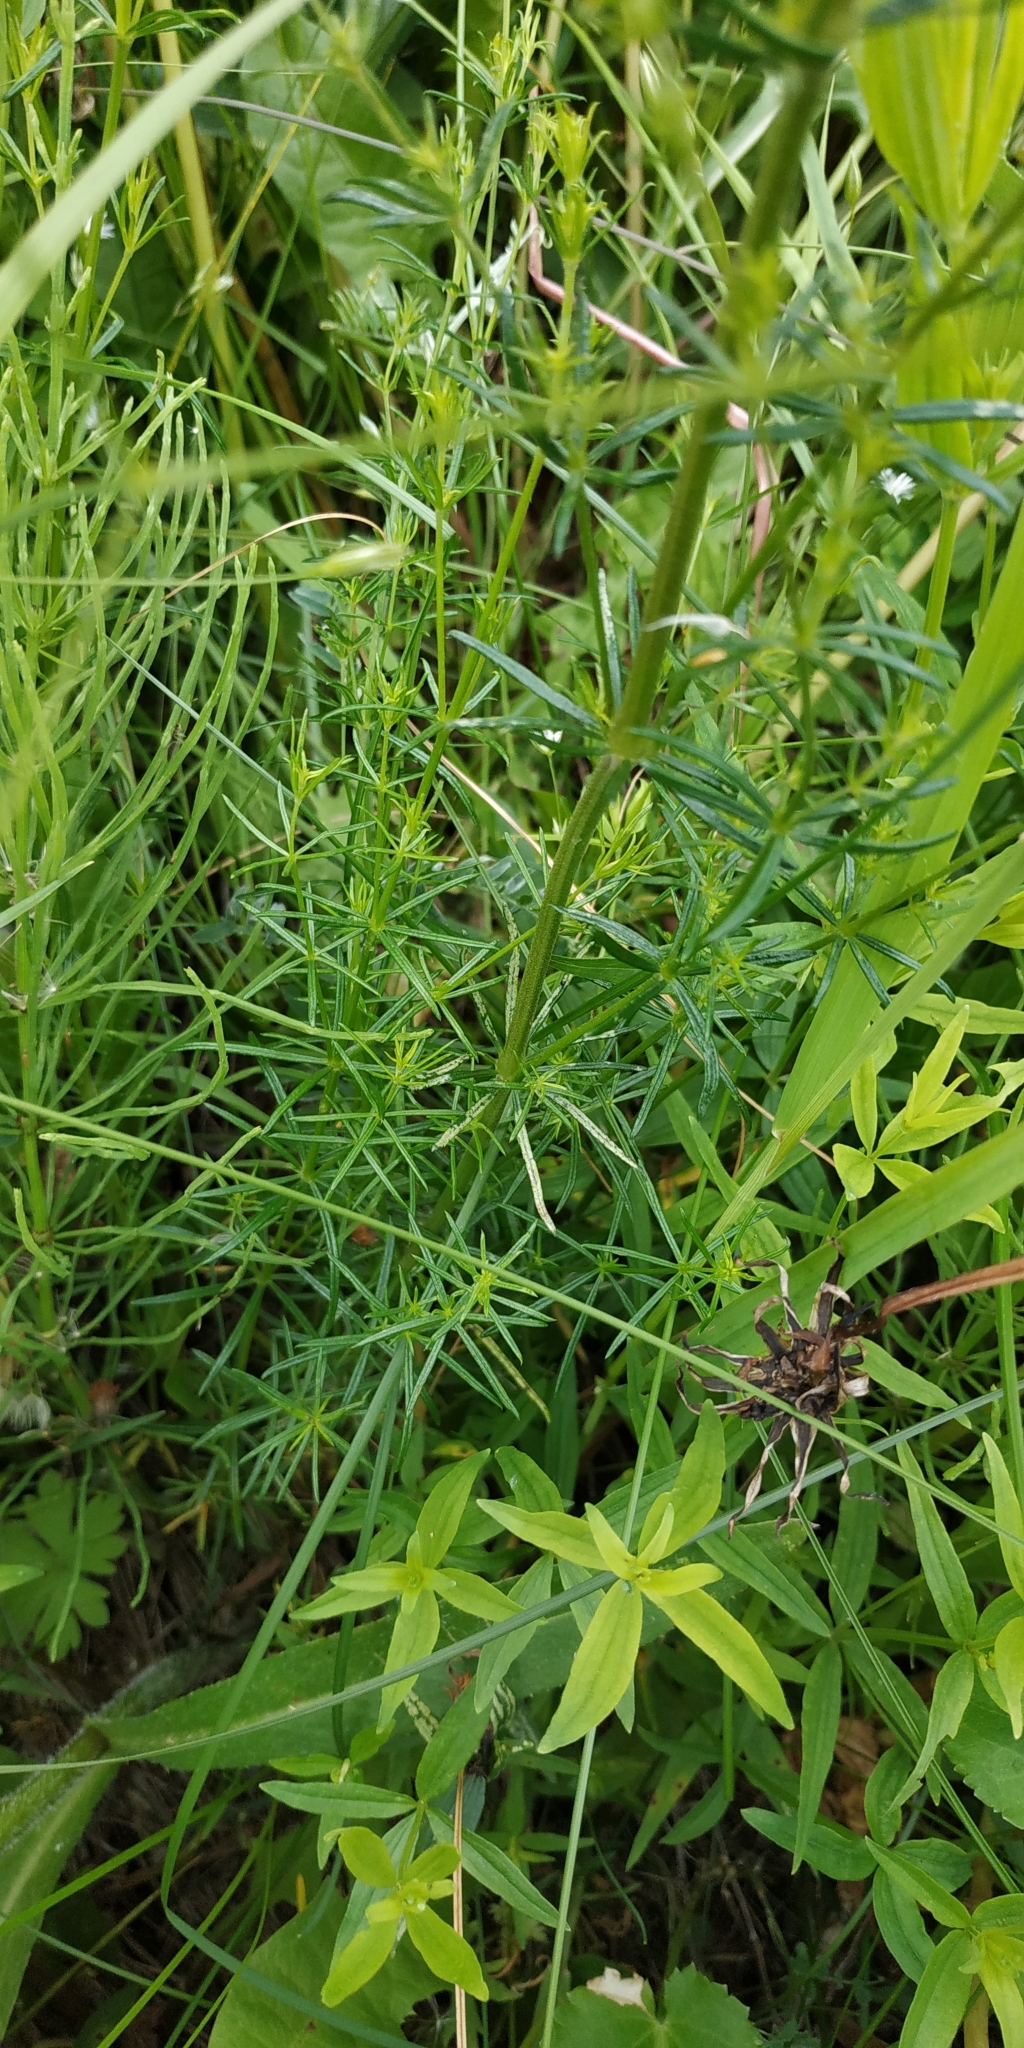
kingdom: Plantae
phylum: Tracheophyta
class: Magnoliopsida
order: Gentianales
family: Rubiaceae
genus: Galium
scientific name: Galium verum
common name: Lady's bedstraw
